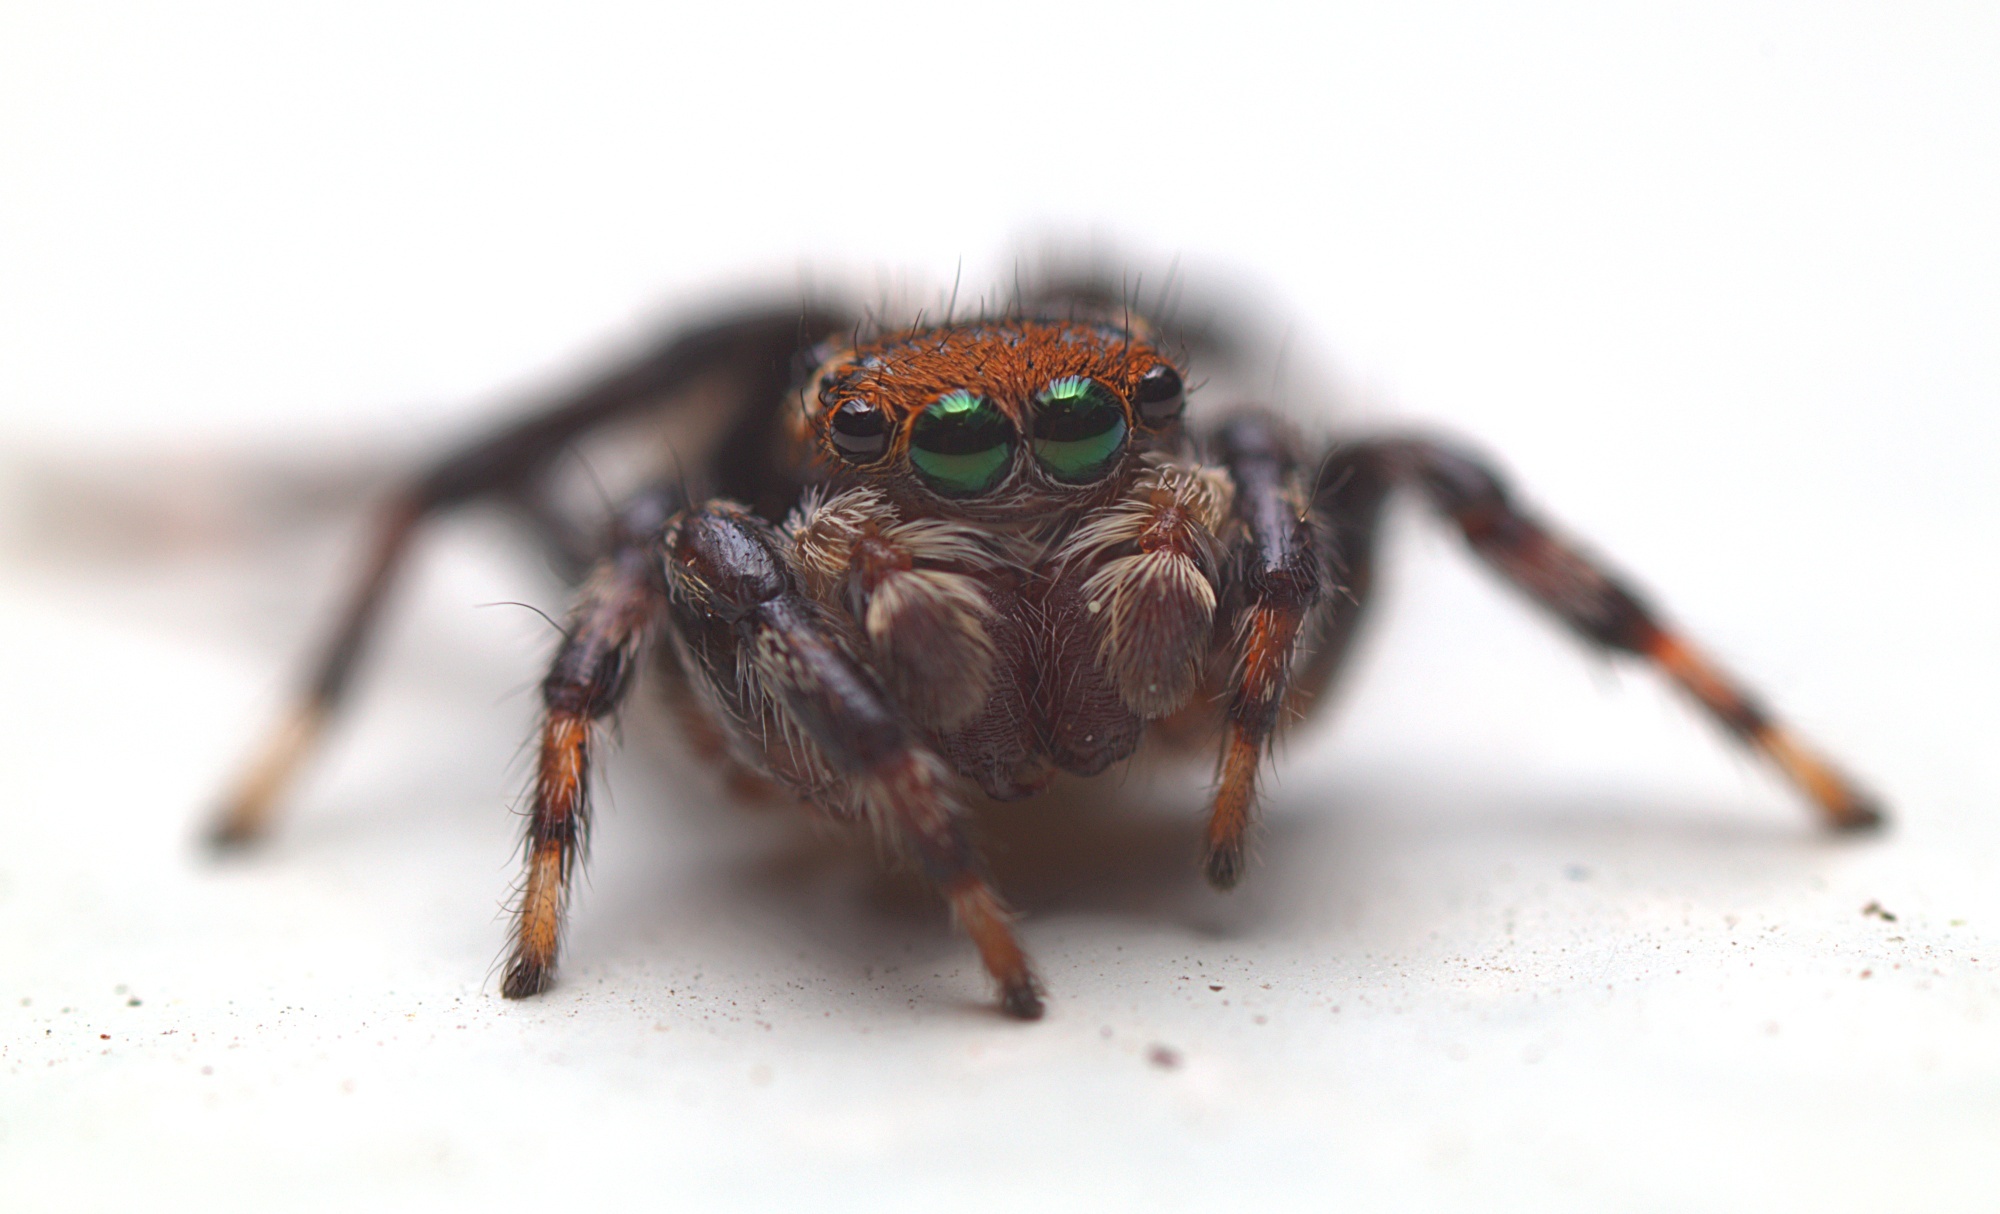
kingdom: Animalia
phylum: Arthropoda
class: Arachnida
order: Araneae
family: Salticidae
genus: Maratus
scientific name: Maratus griseus
